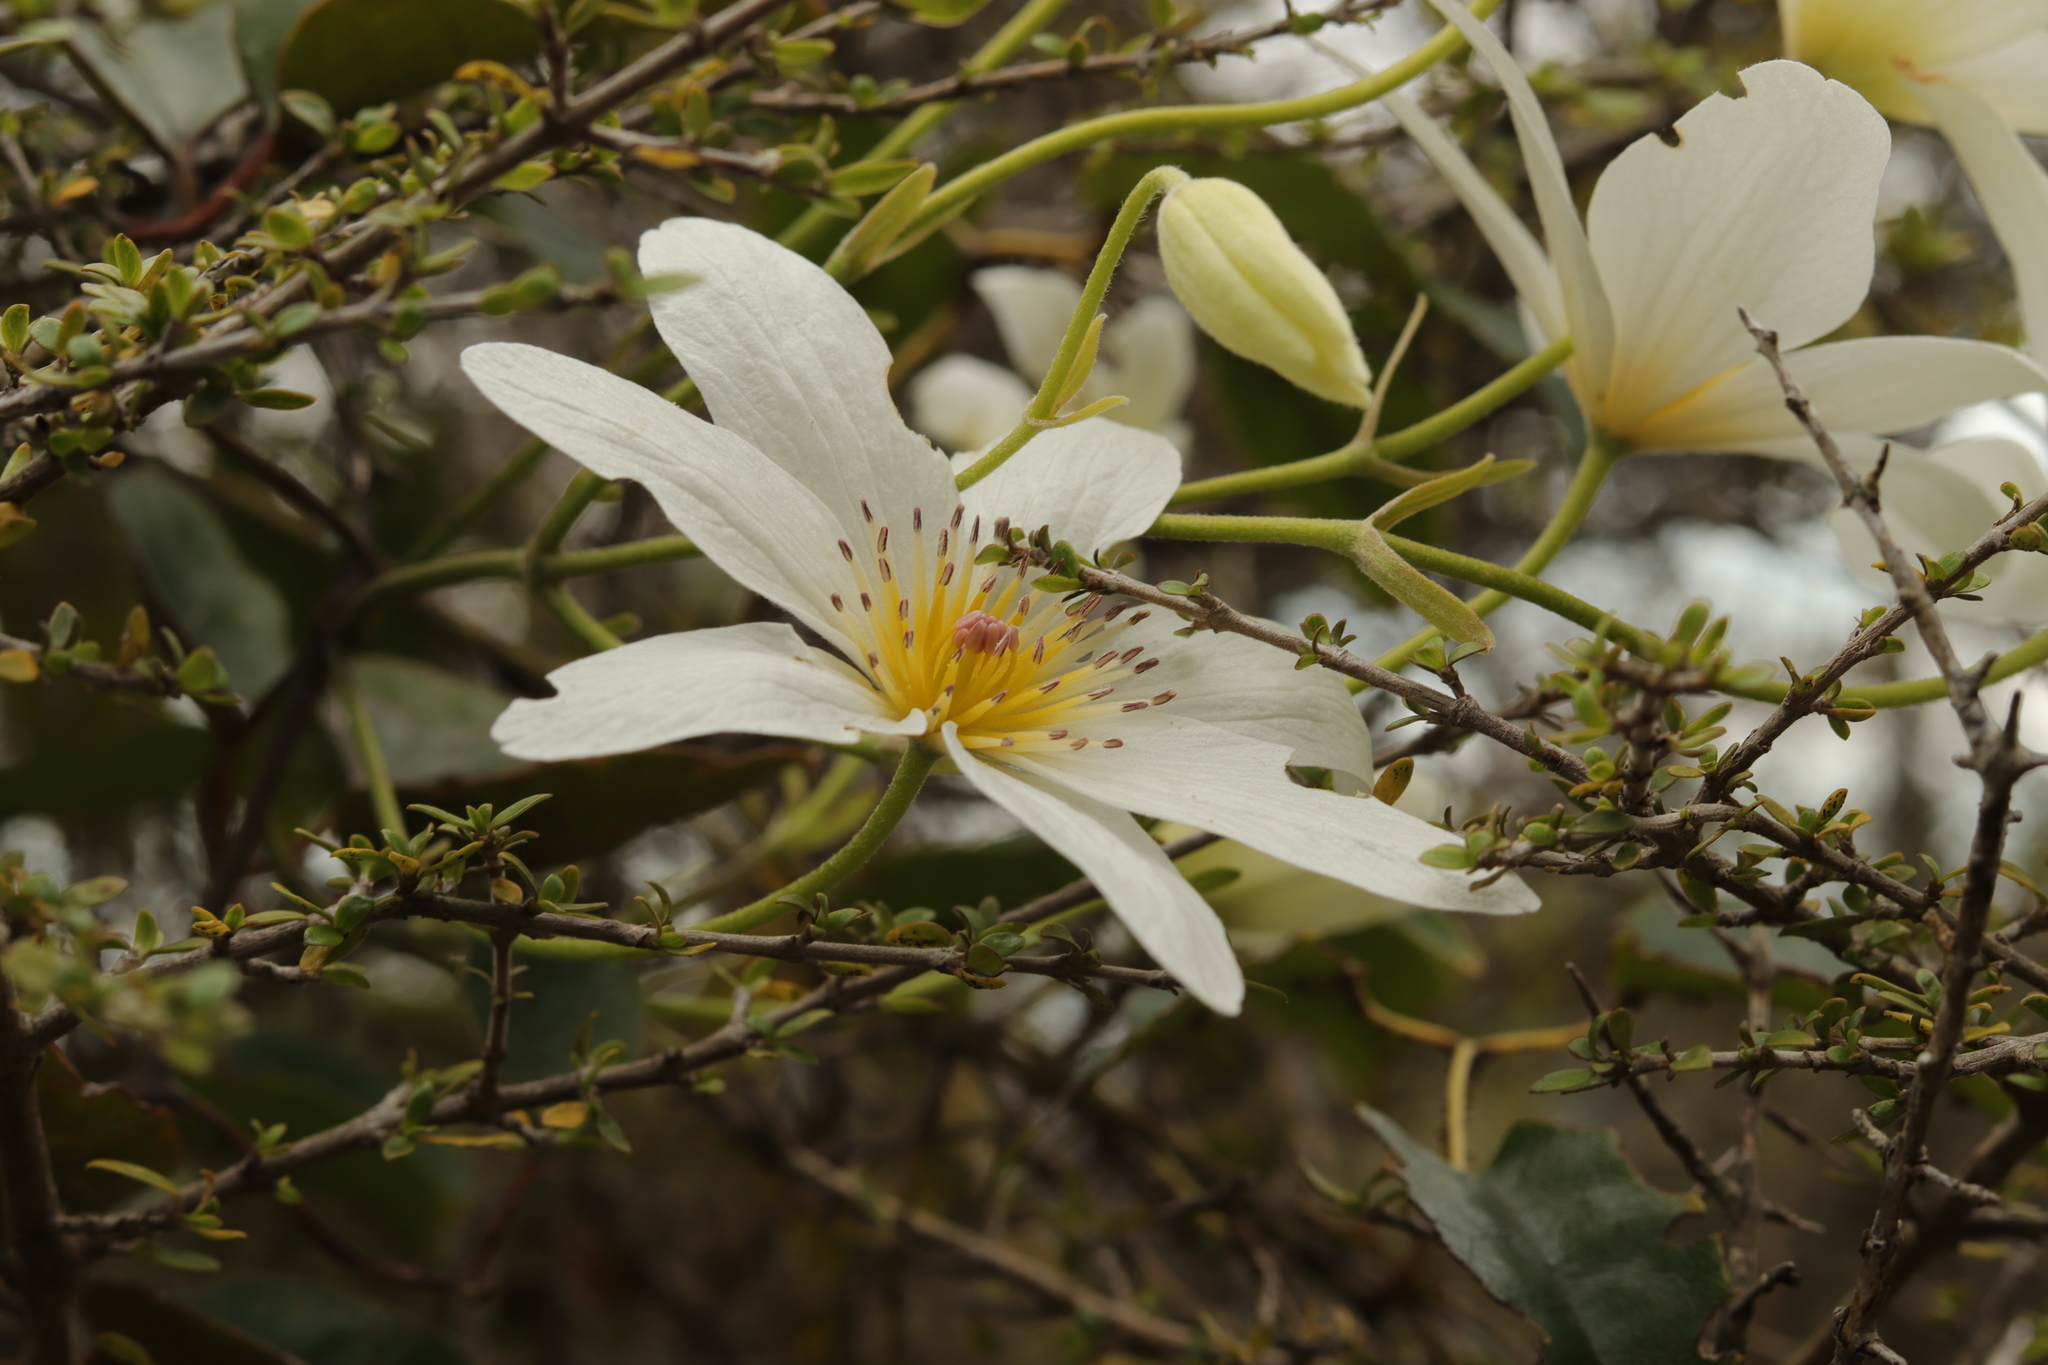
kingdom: Plantae
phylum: Tracheophyta
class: Magnoliopsida
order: Ranunculales
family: Ranunculaceae
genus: Clematis
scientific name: Clematis paniculata
